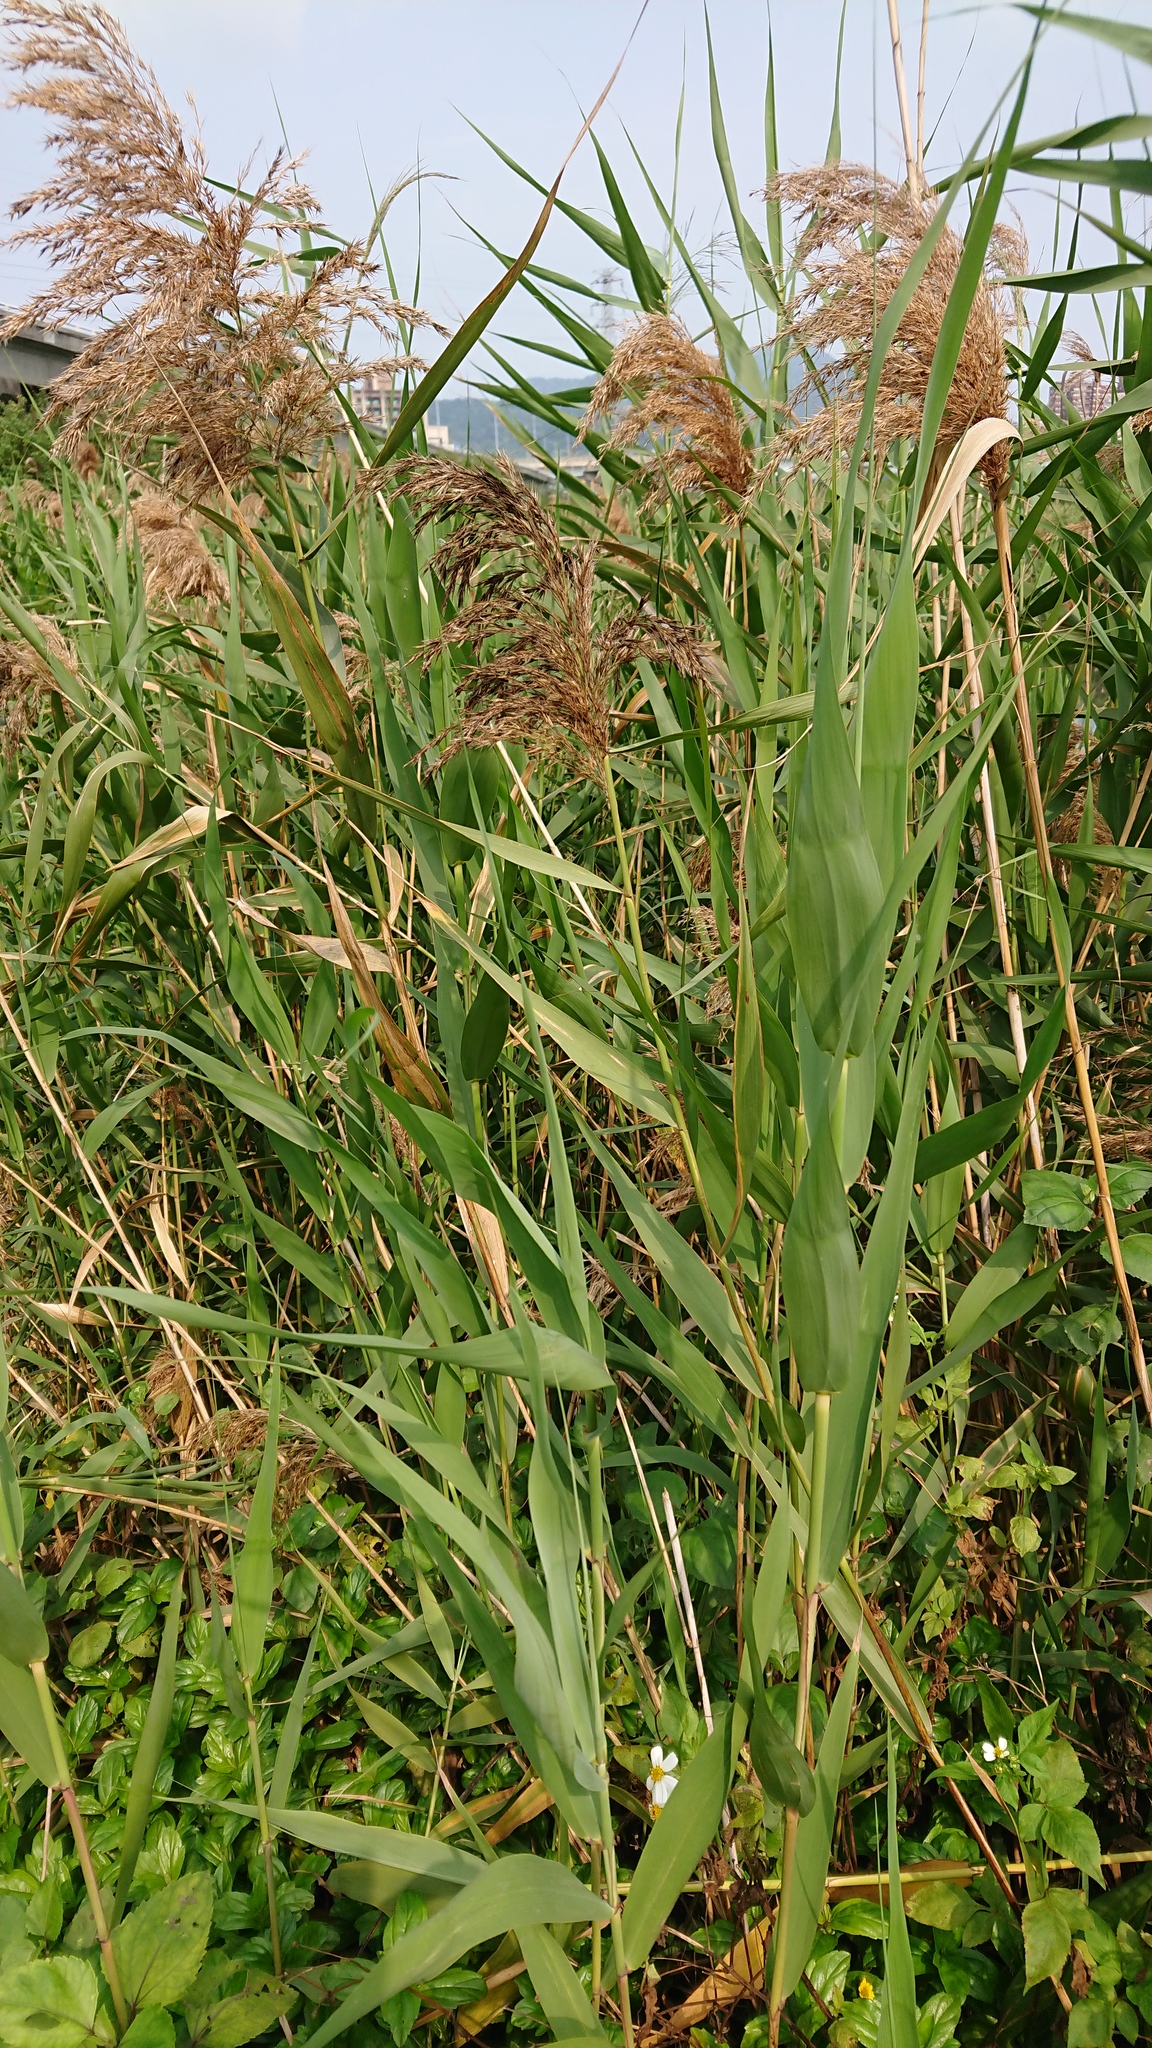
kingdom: Plantae
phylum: Tracheophyta
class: Liliopsida
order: Poales
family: Poaceae
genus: Phragmites
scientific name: Phragmites australis
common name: Common reed
